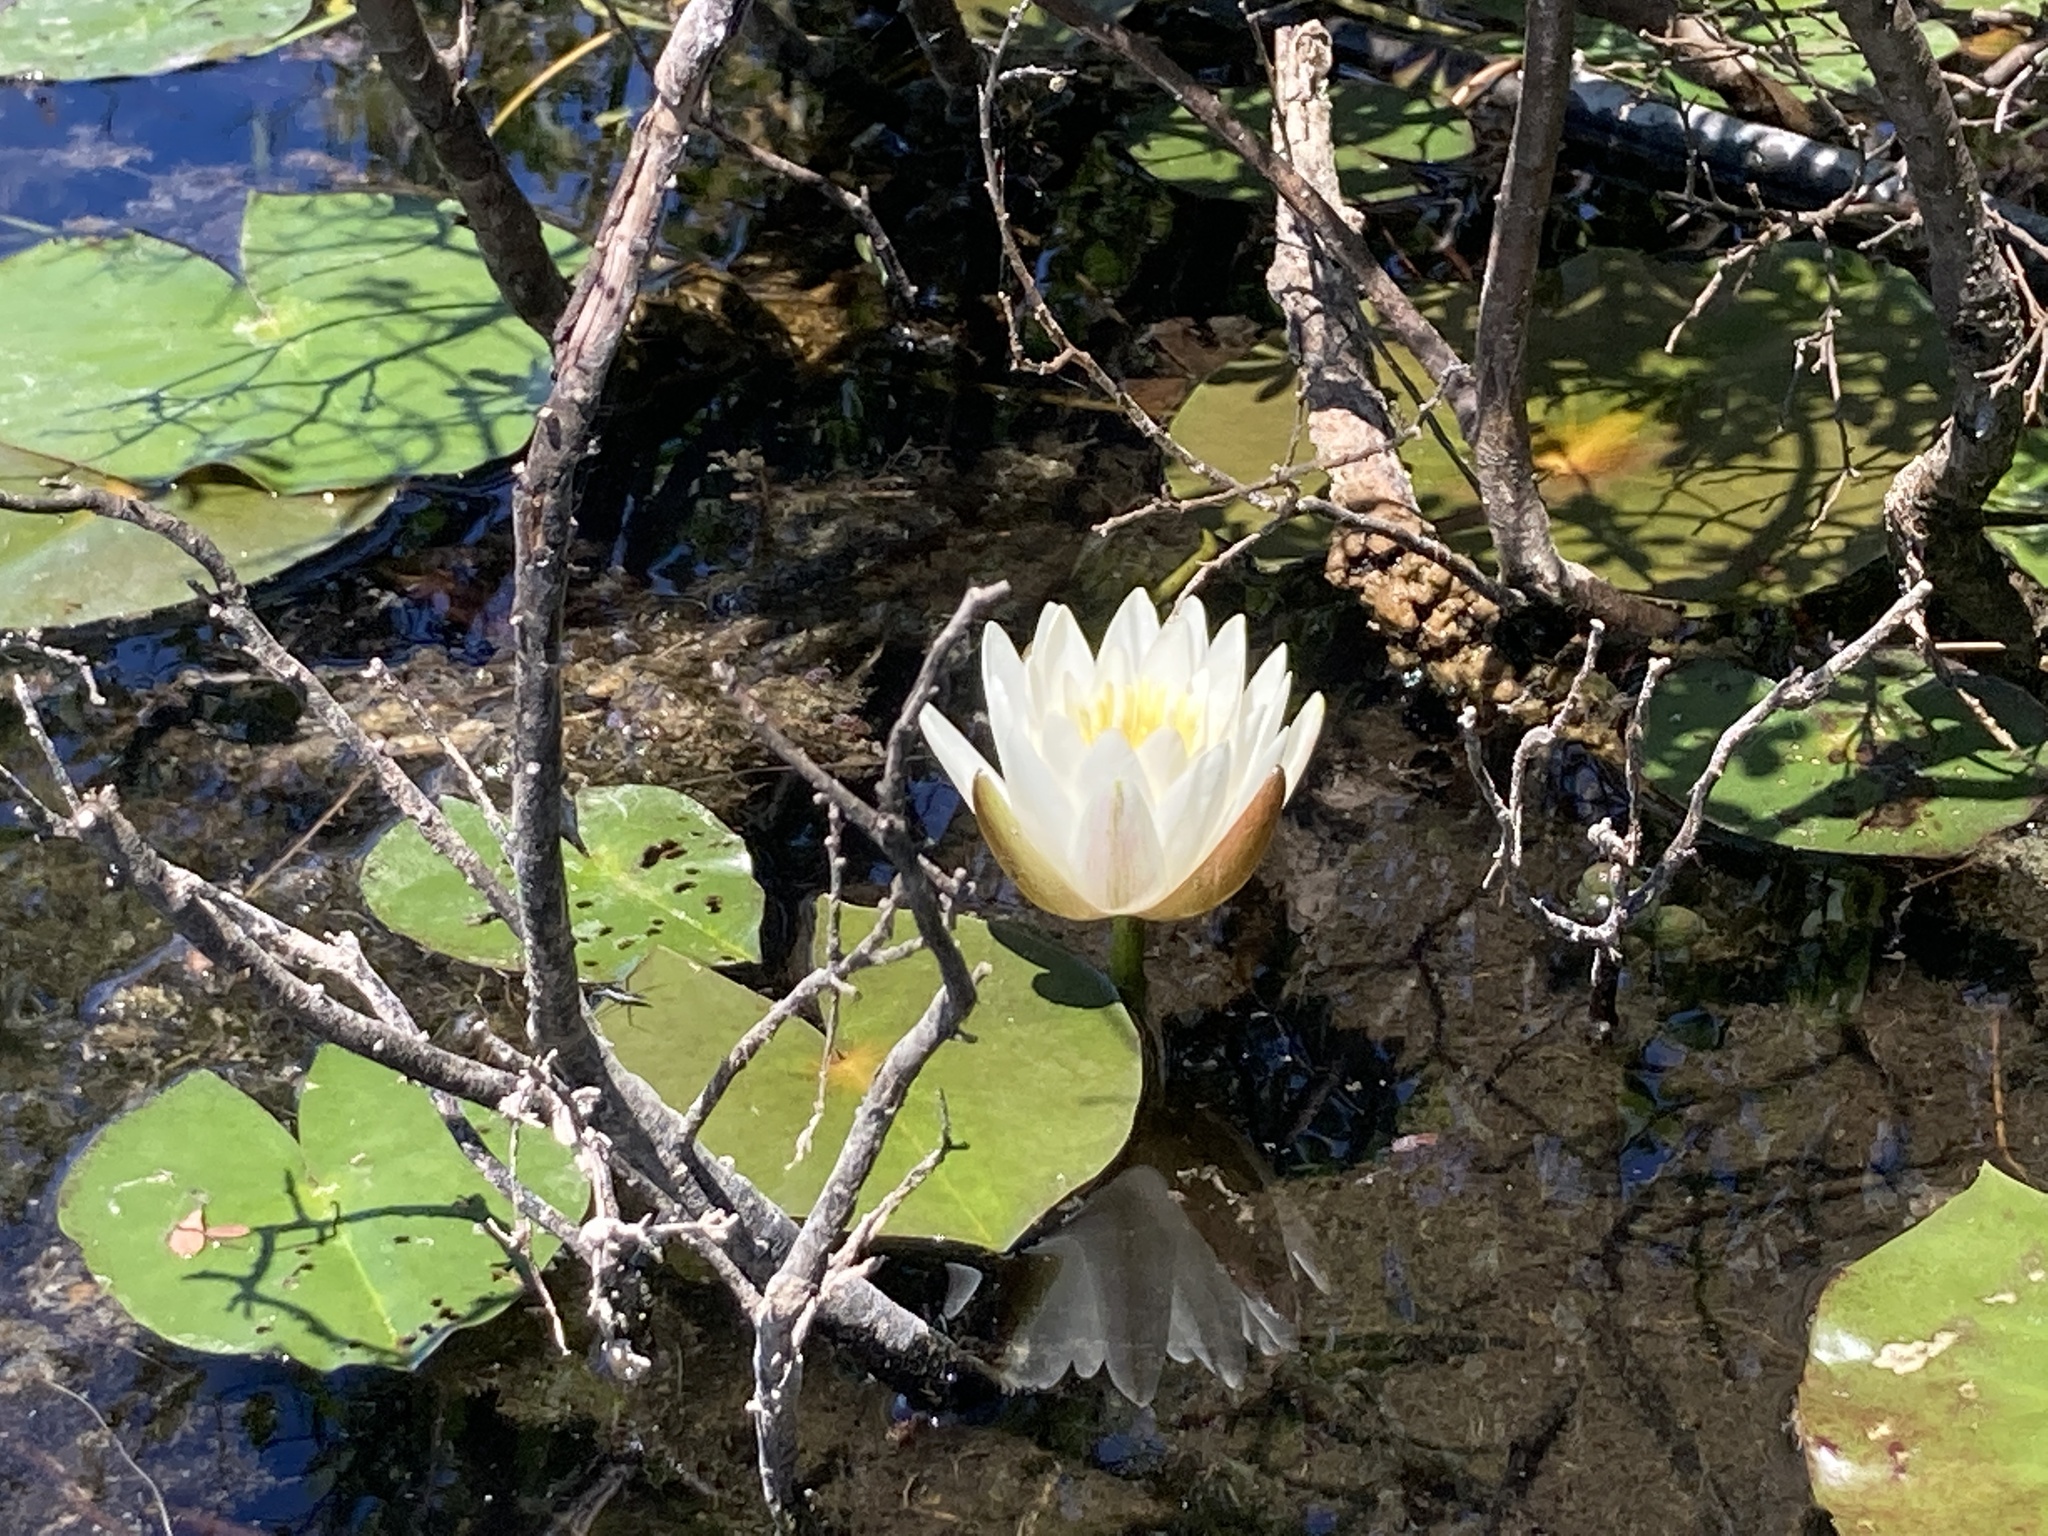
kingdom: Plantae
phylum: Tracheophyta
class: Magnoliopsida
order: Nymphaeales
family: Nymphaeaceae
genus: Nymphaea
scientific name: Nymphaea odorata
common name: Fragrant water-lily
